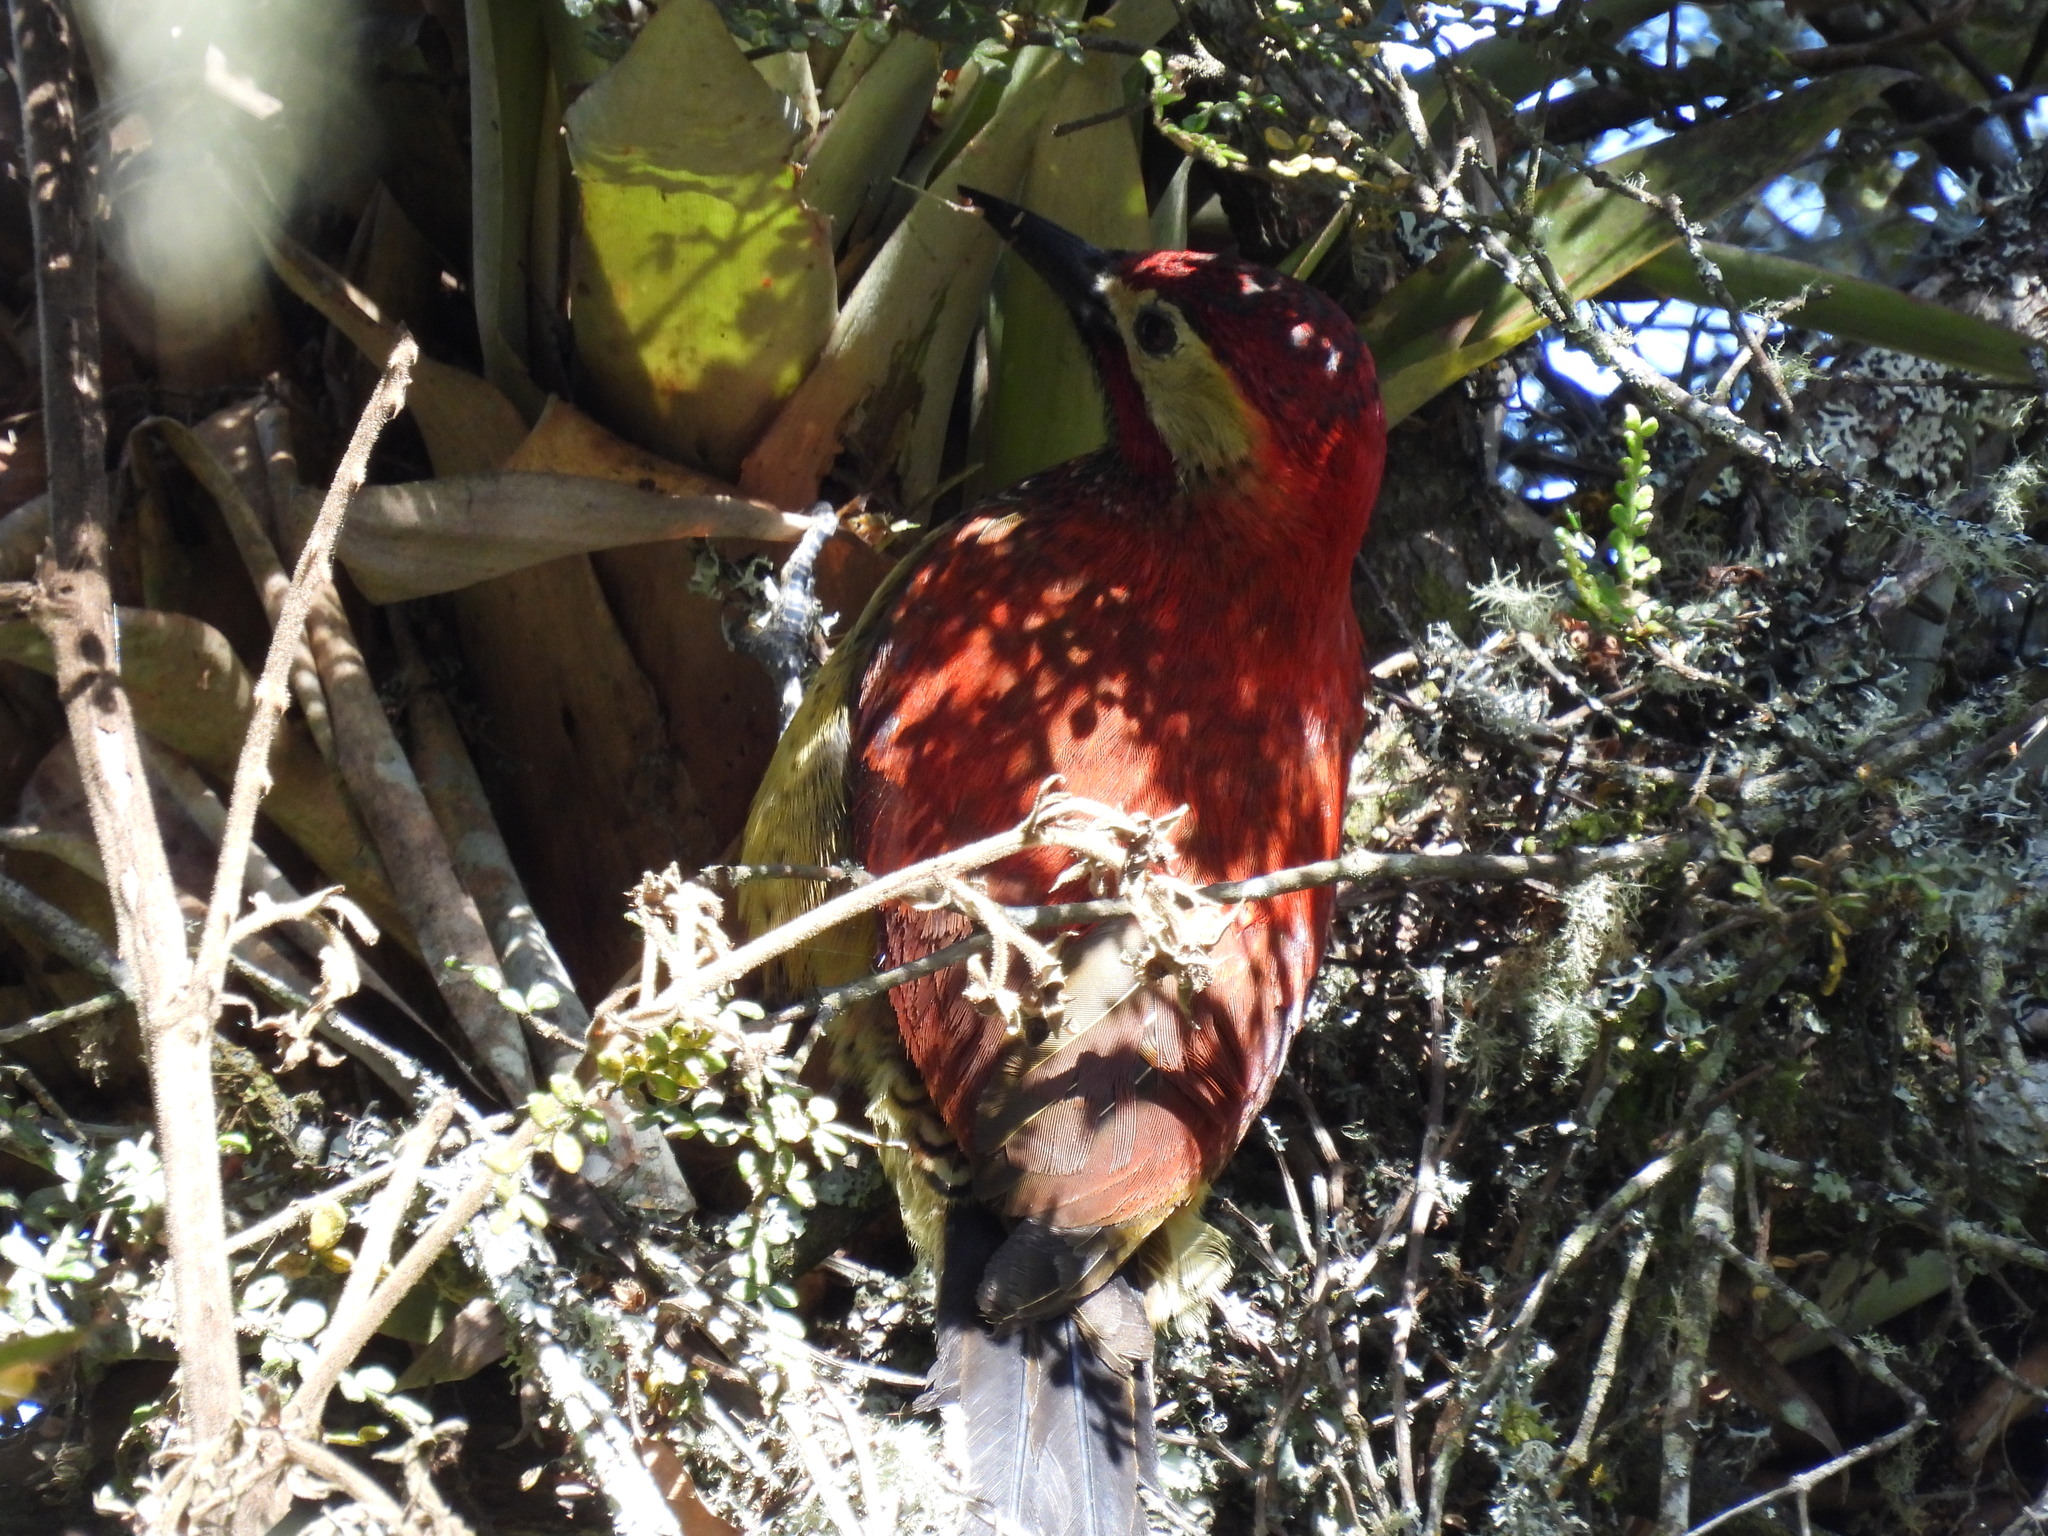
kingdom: Animalia
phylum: Chordata
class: Aves
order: Piciformes
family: Picidae
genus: Colaptes
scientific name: Colaptes rivolii
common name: Crimson-mantled woodpecker
